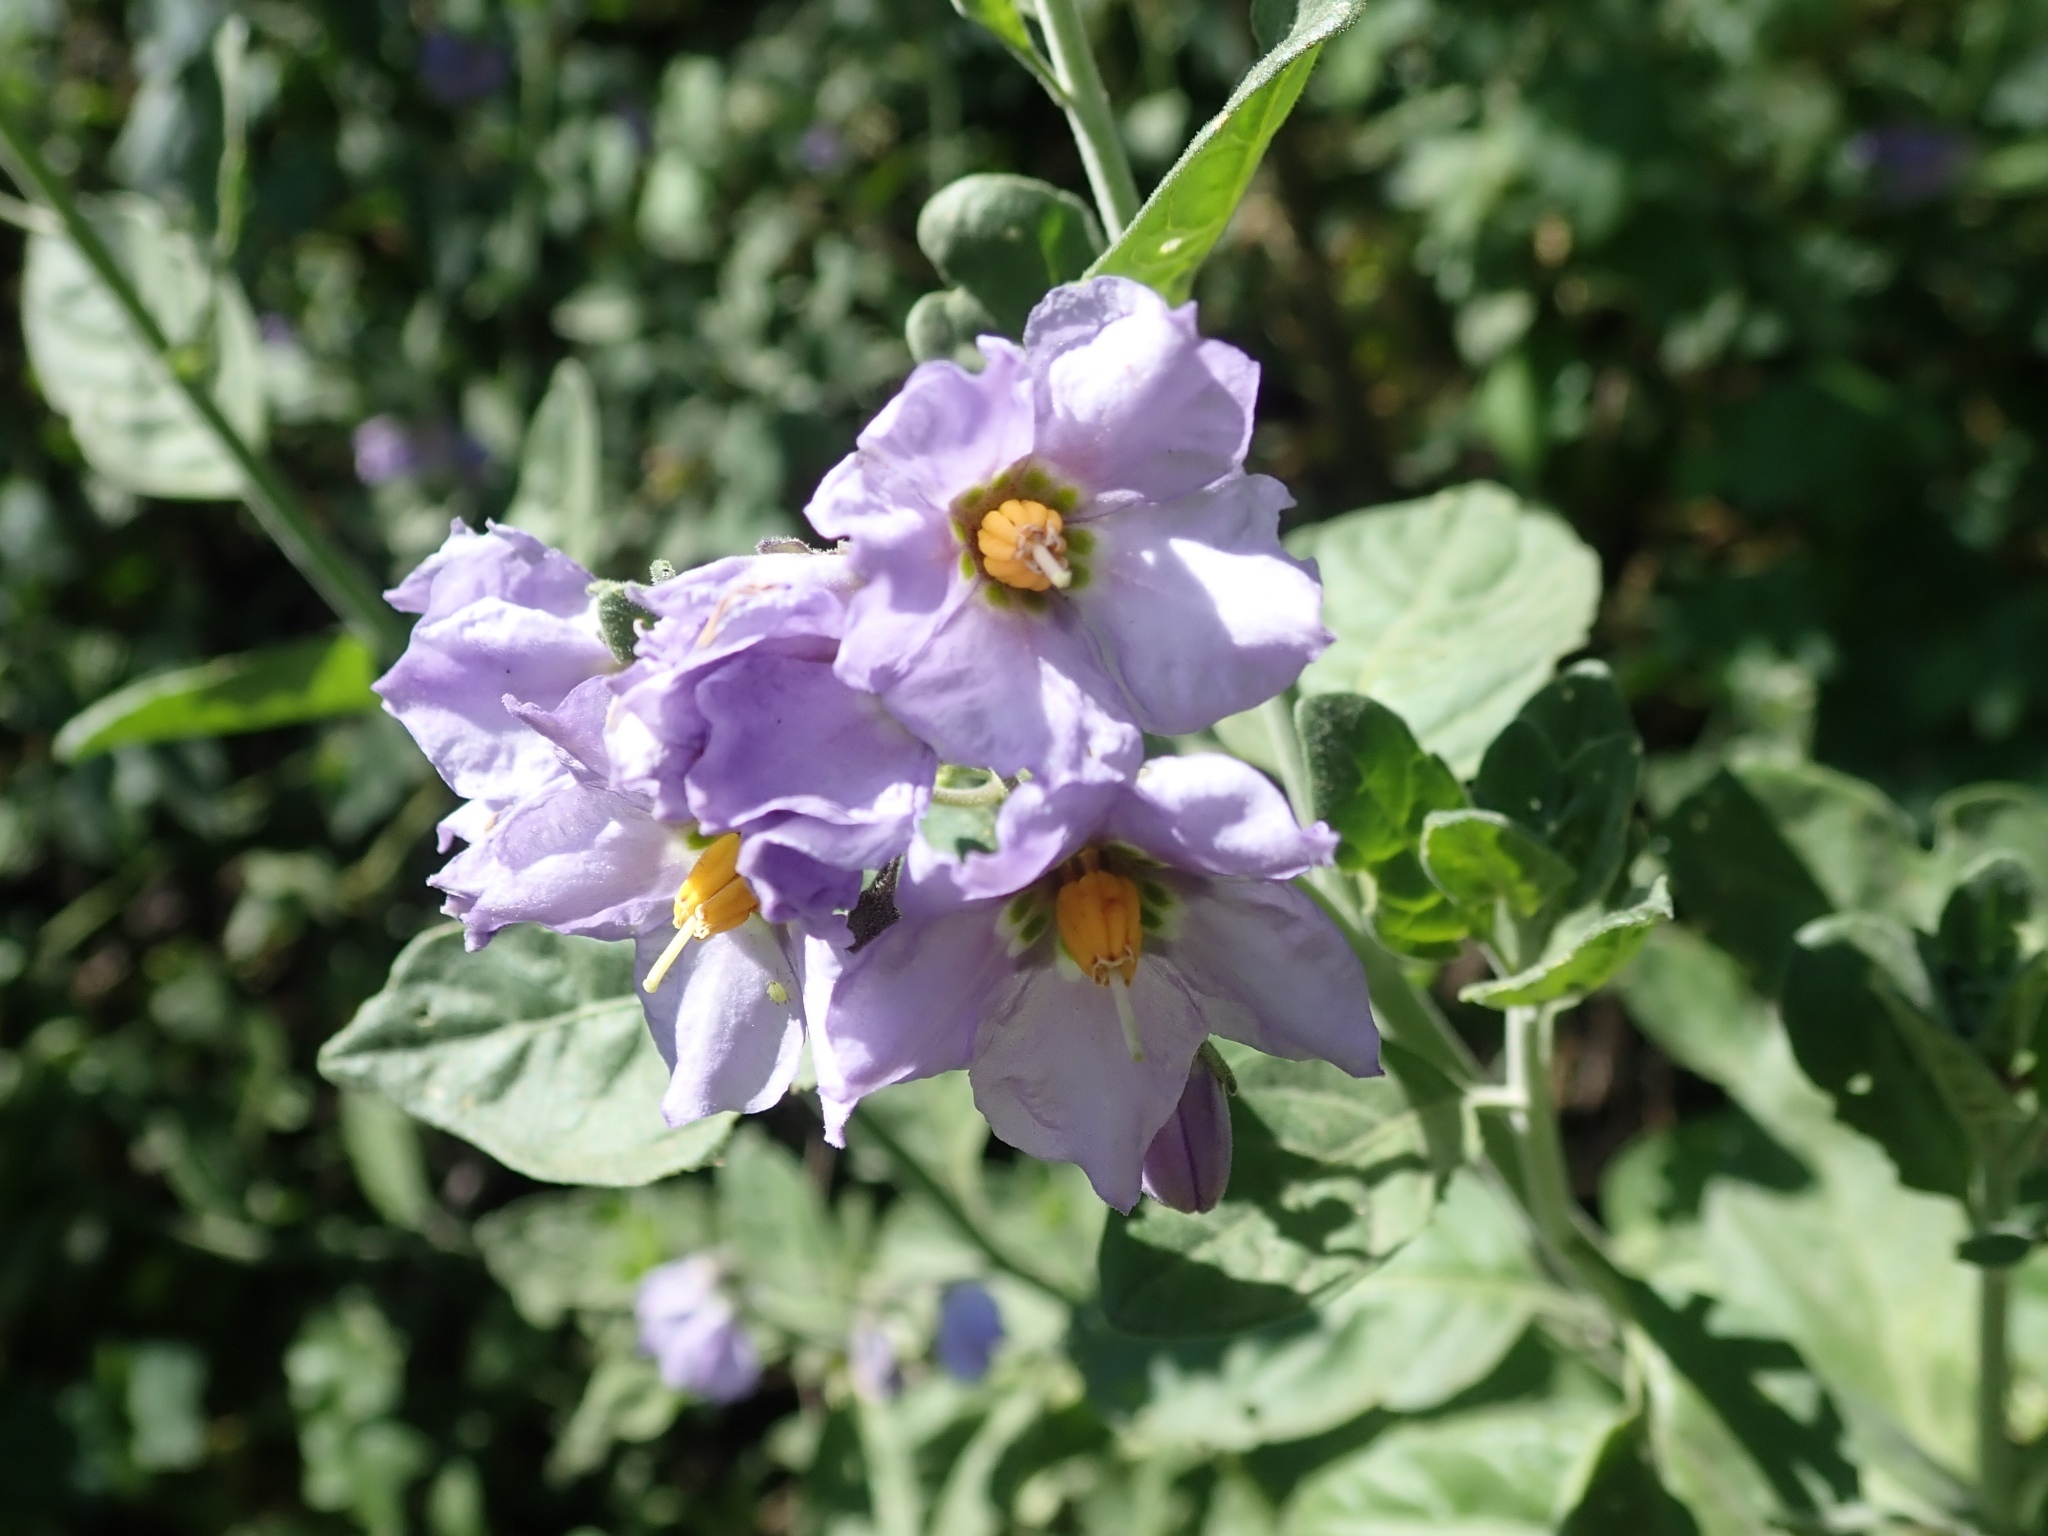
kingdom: Plantae
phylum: Tracheophyta
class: Magnoliopsida
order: Solanales
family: Solanaceae
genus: Solanum
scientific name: Solanum umbelliferum
